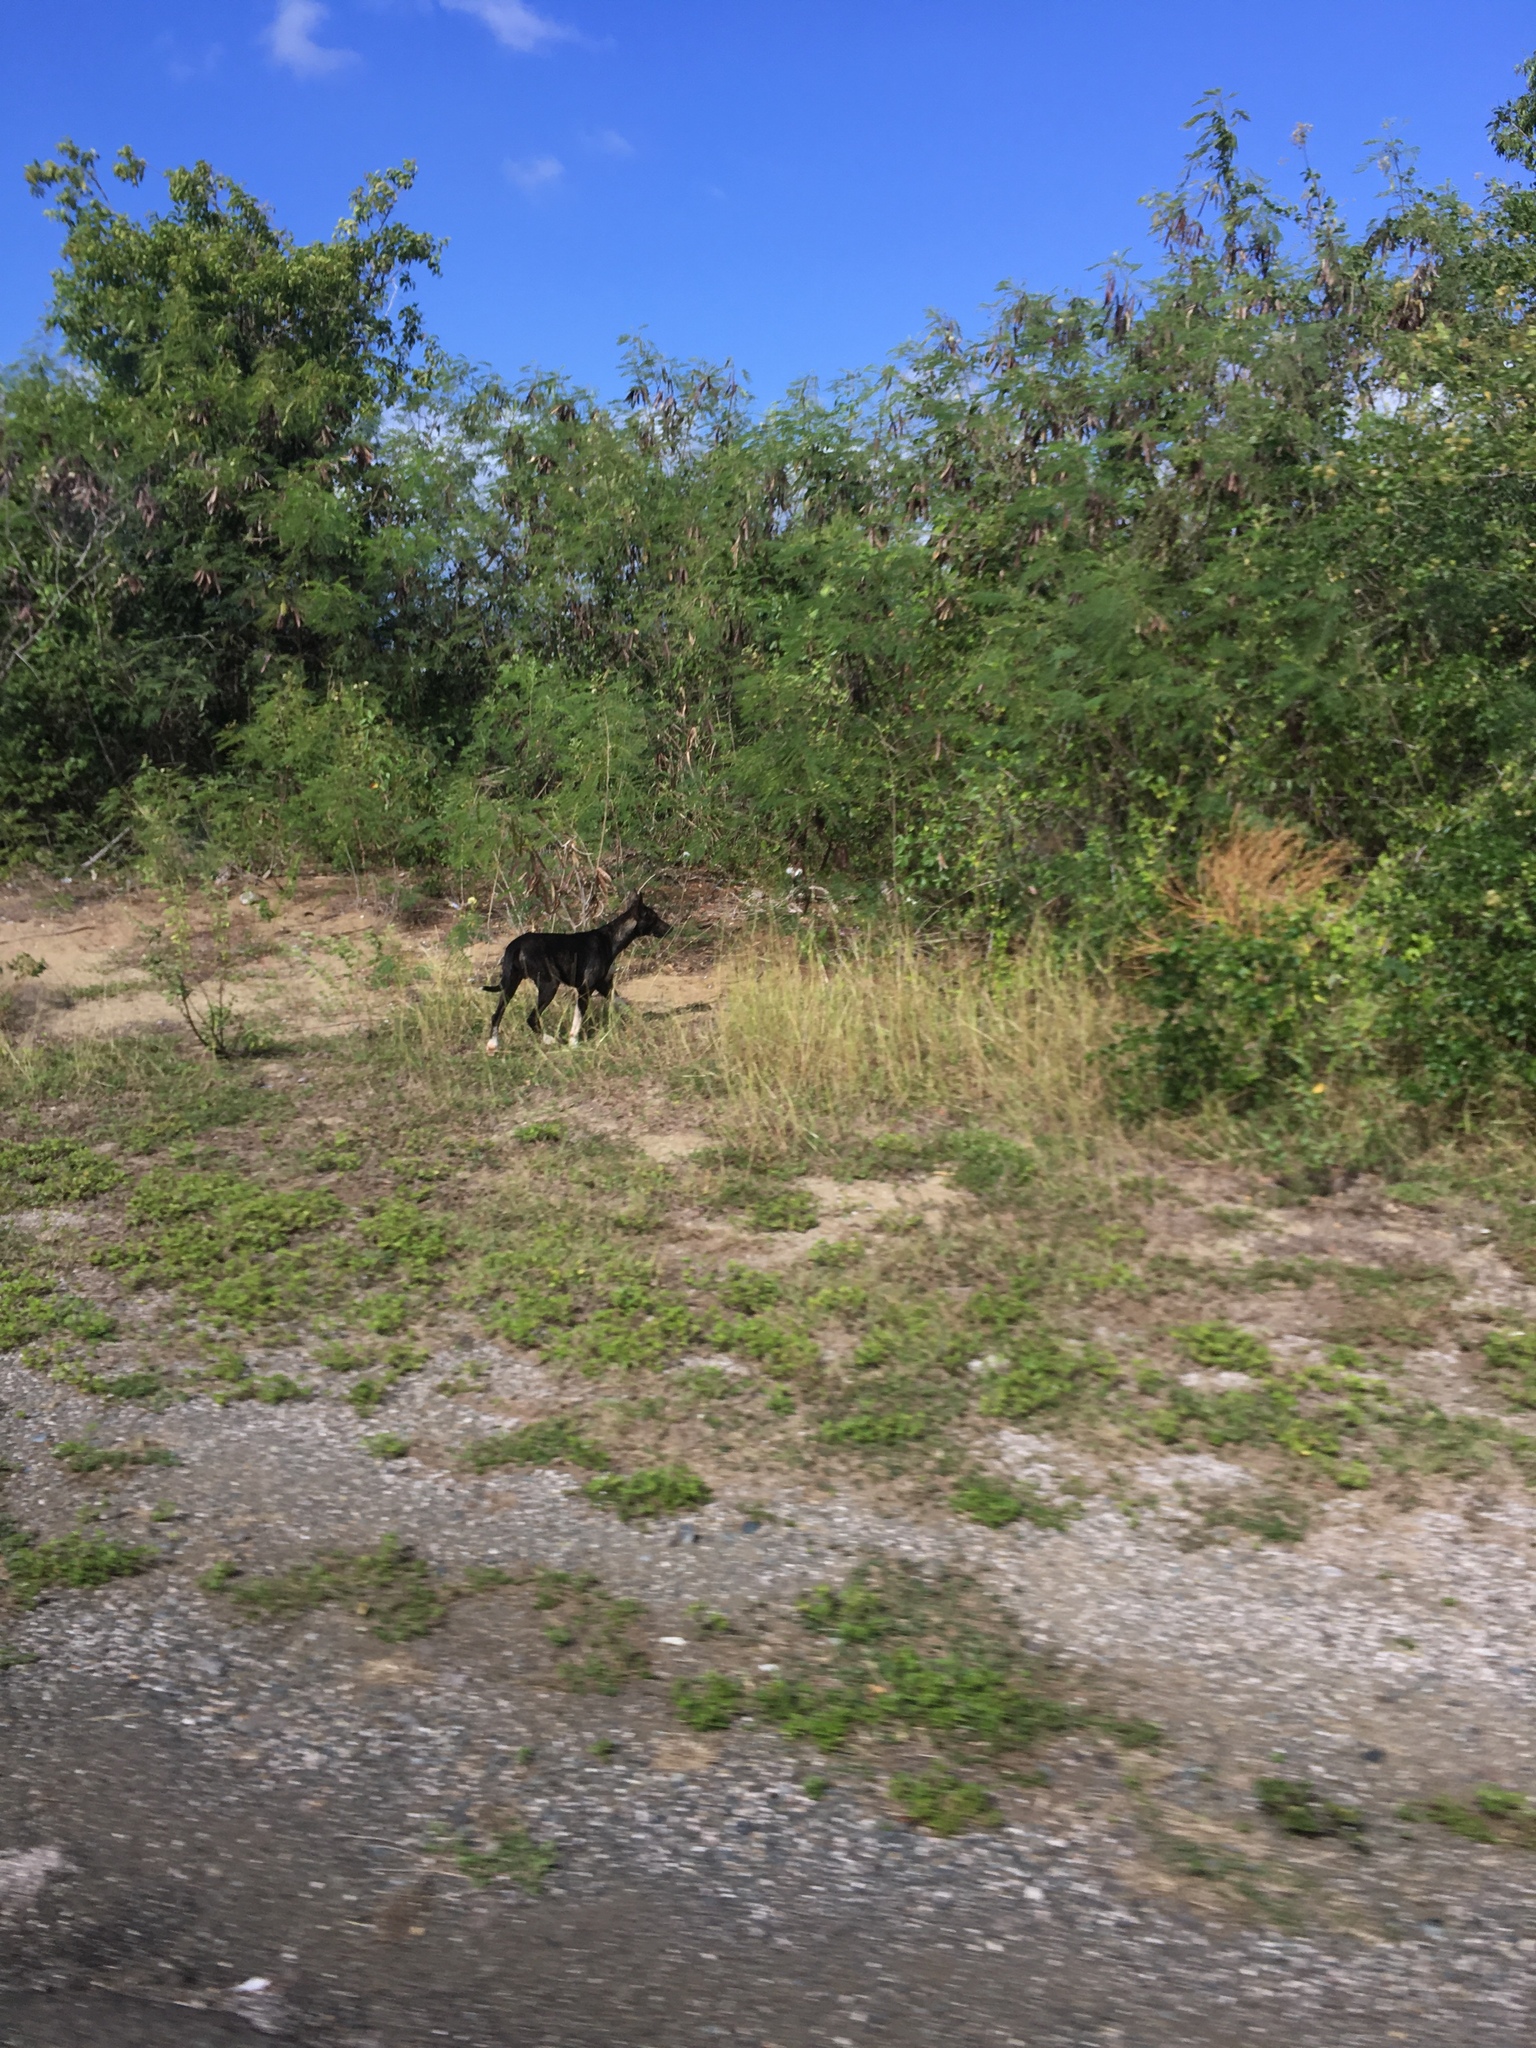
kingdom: Animalia
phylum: Chordata
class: Mammalia
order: Carnivora
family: Canidae
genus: Canis
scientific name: Canis lupus
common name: Gray wolf
